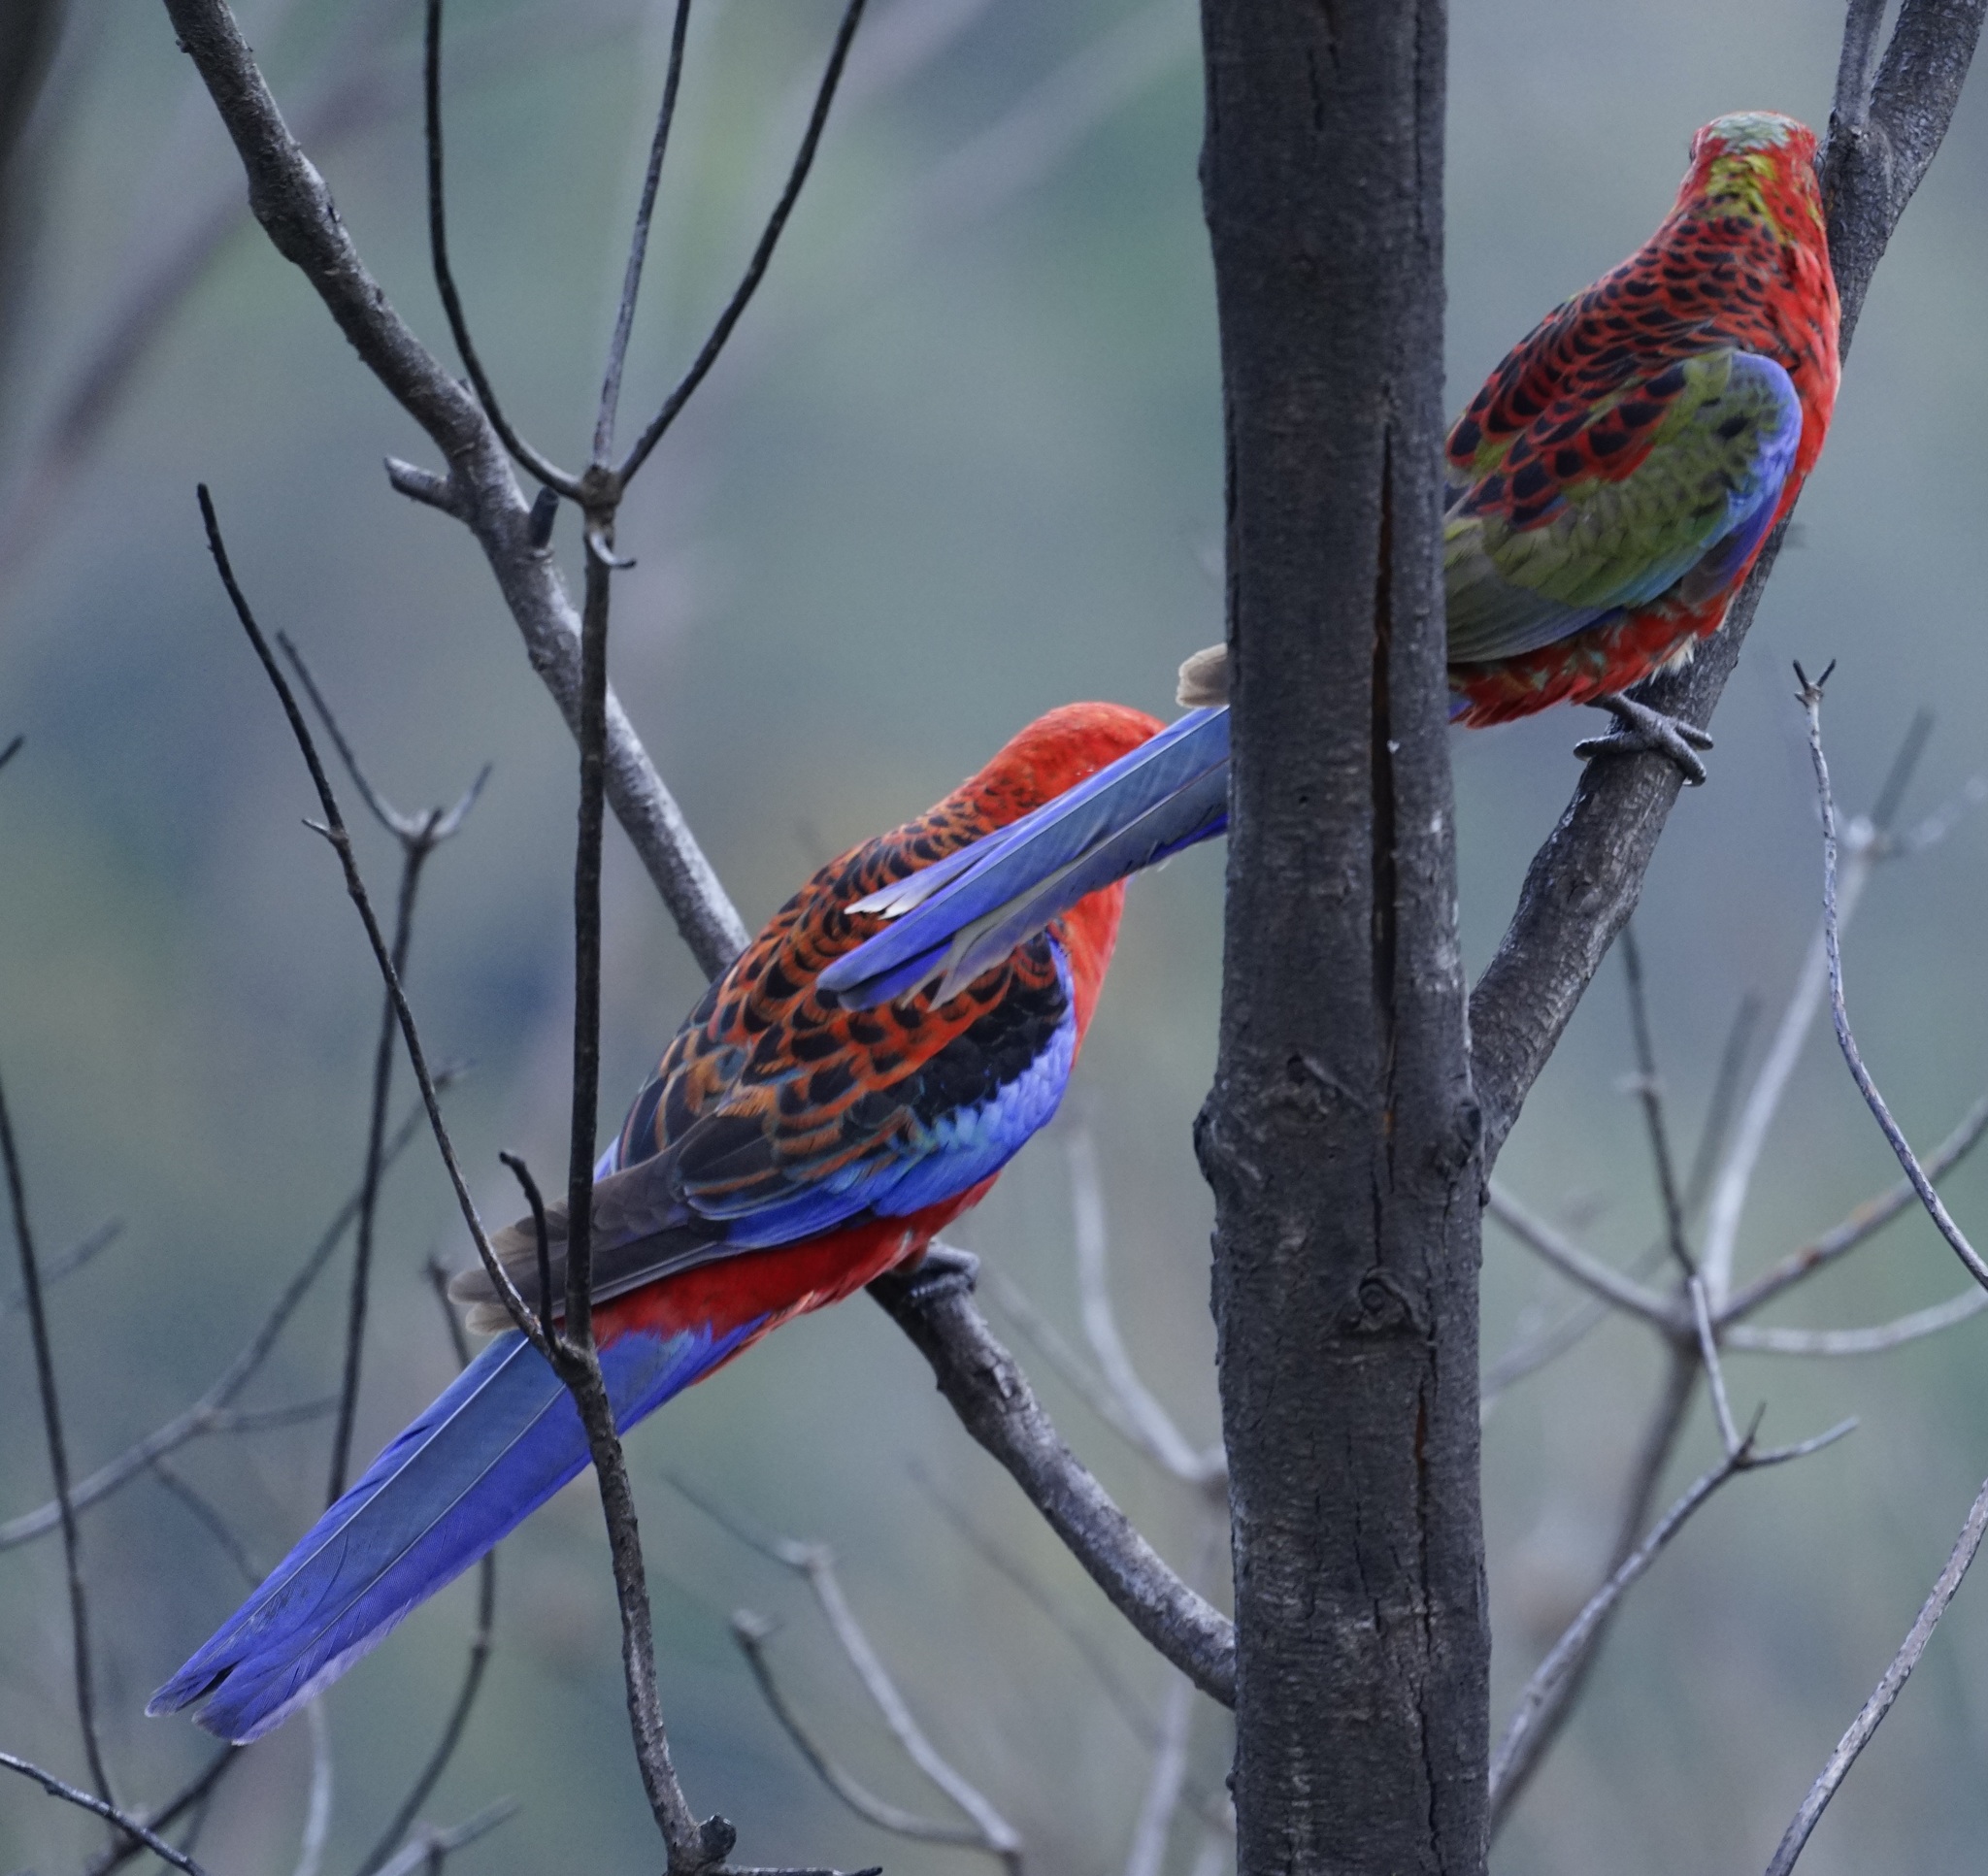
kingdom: Animalia
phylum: Chordata
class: Aves
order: Psittaciformes
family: Psittacidae
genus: Platycercus
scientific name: Platycercus elegans
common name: Crimson rosella
